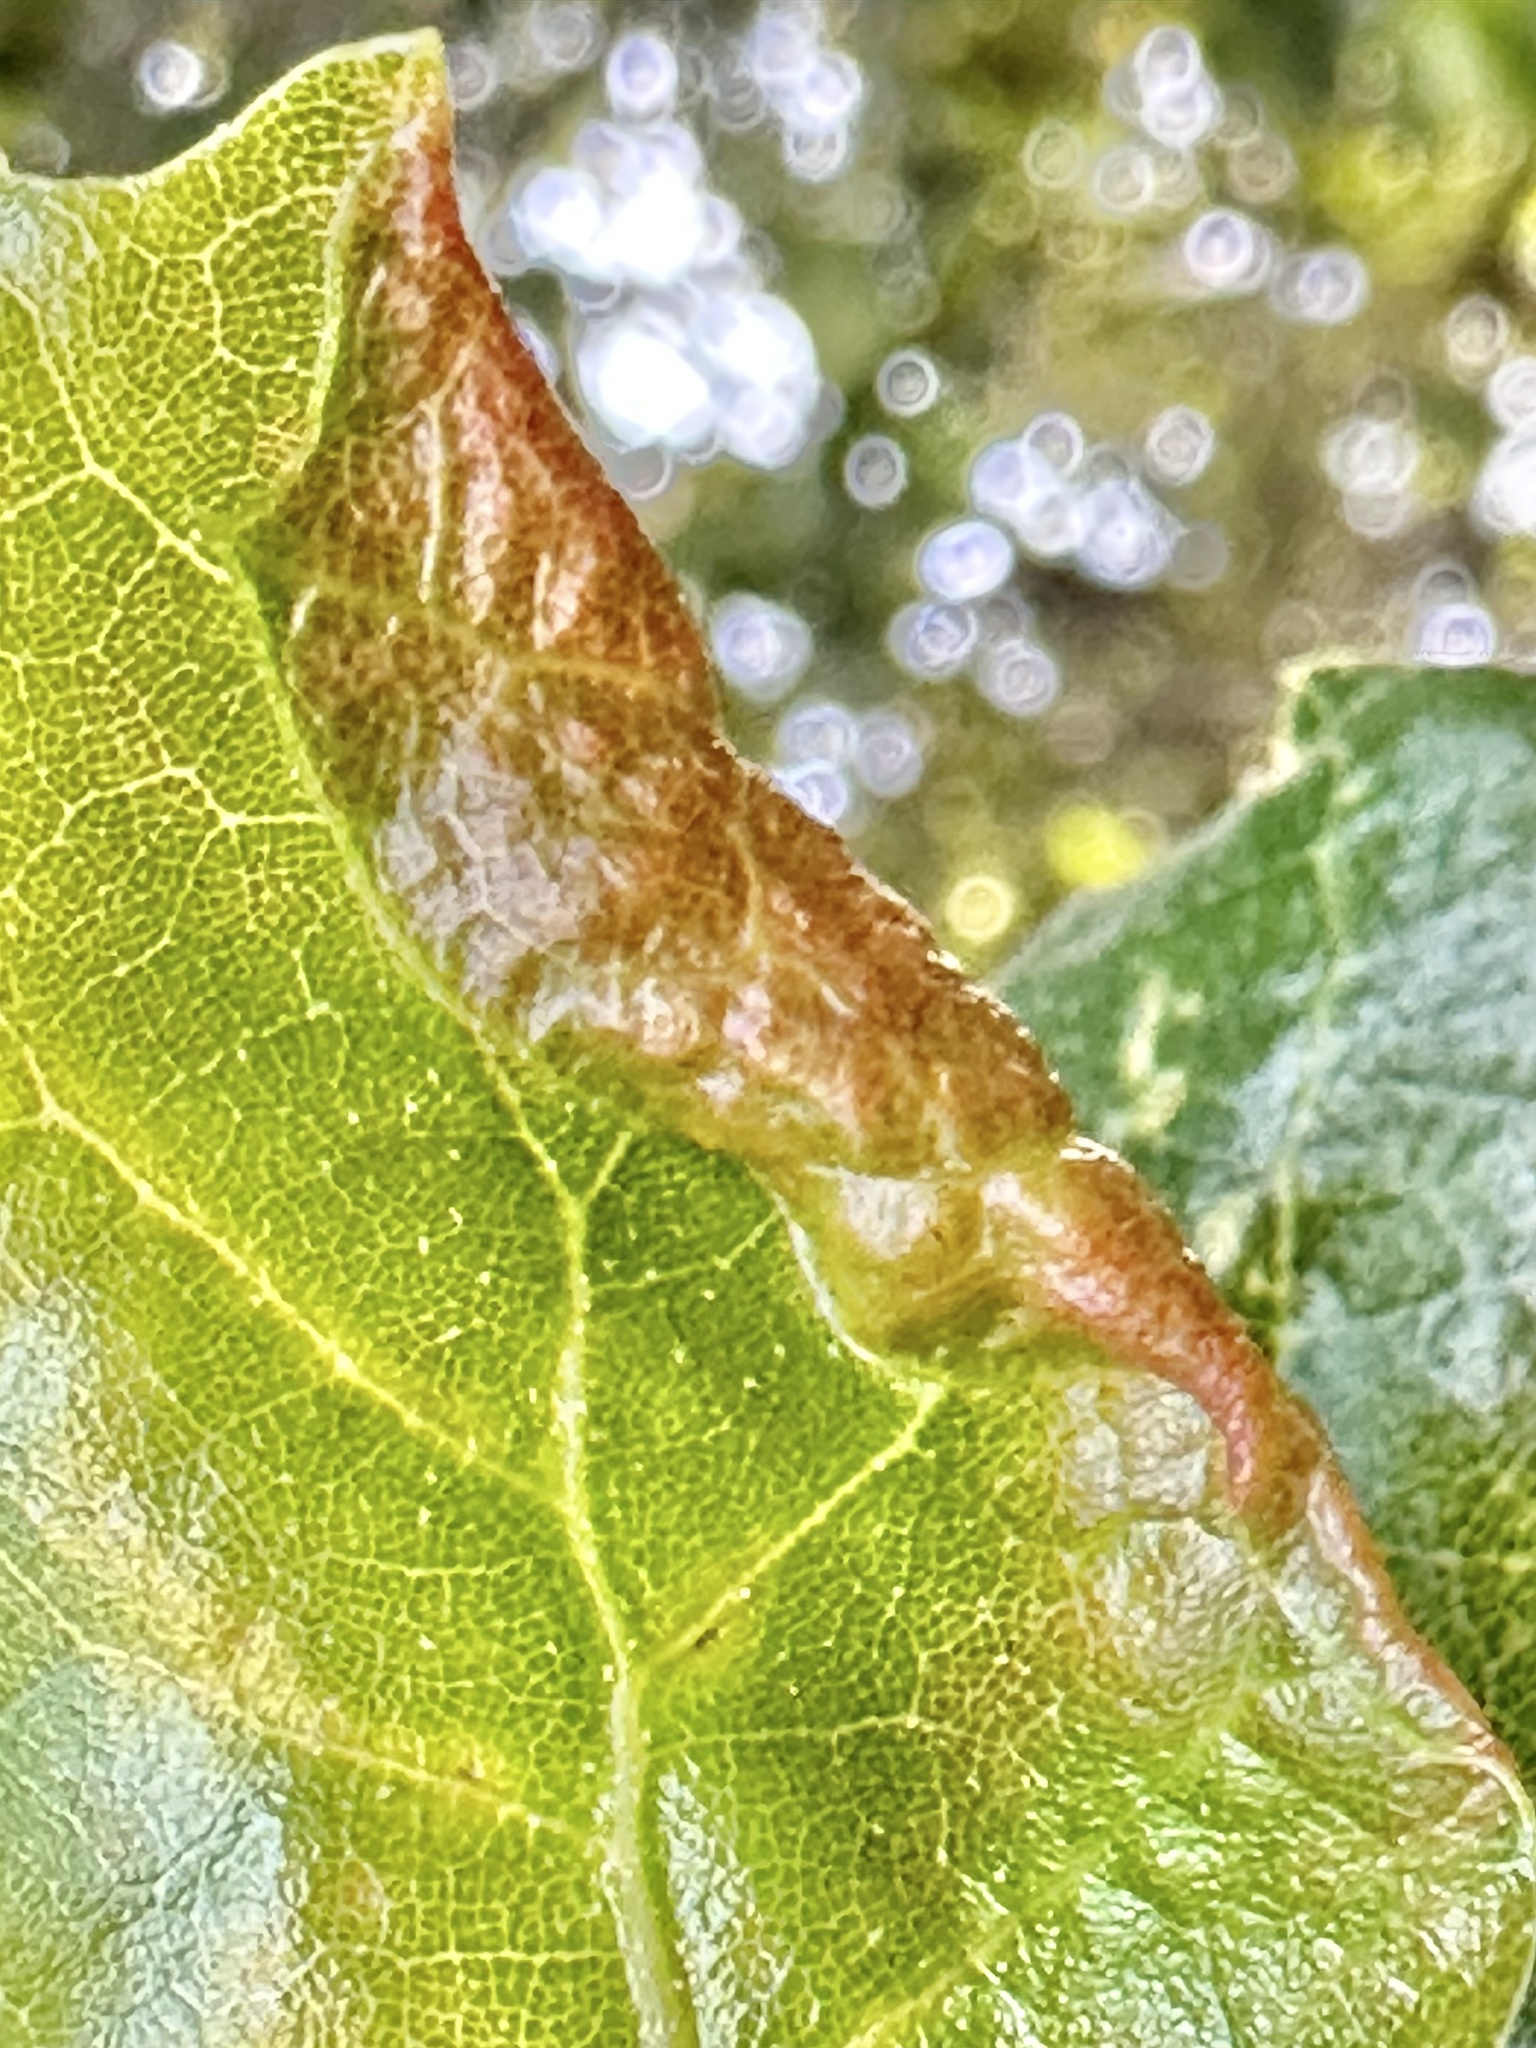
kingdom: Animalia
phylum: Arthropoda
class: Insecta
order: Hemiptera
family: Aphididae
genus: Stegophylla
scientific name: Stegophylla essigi
